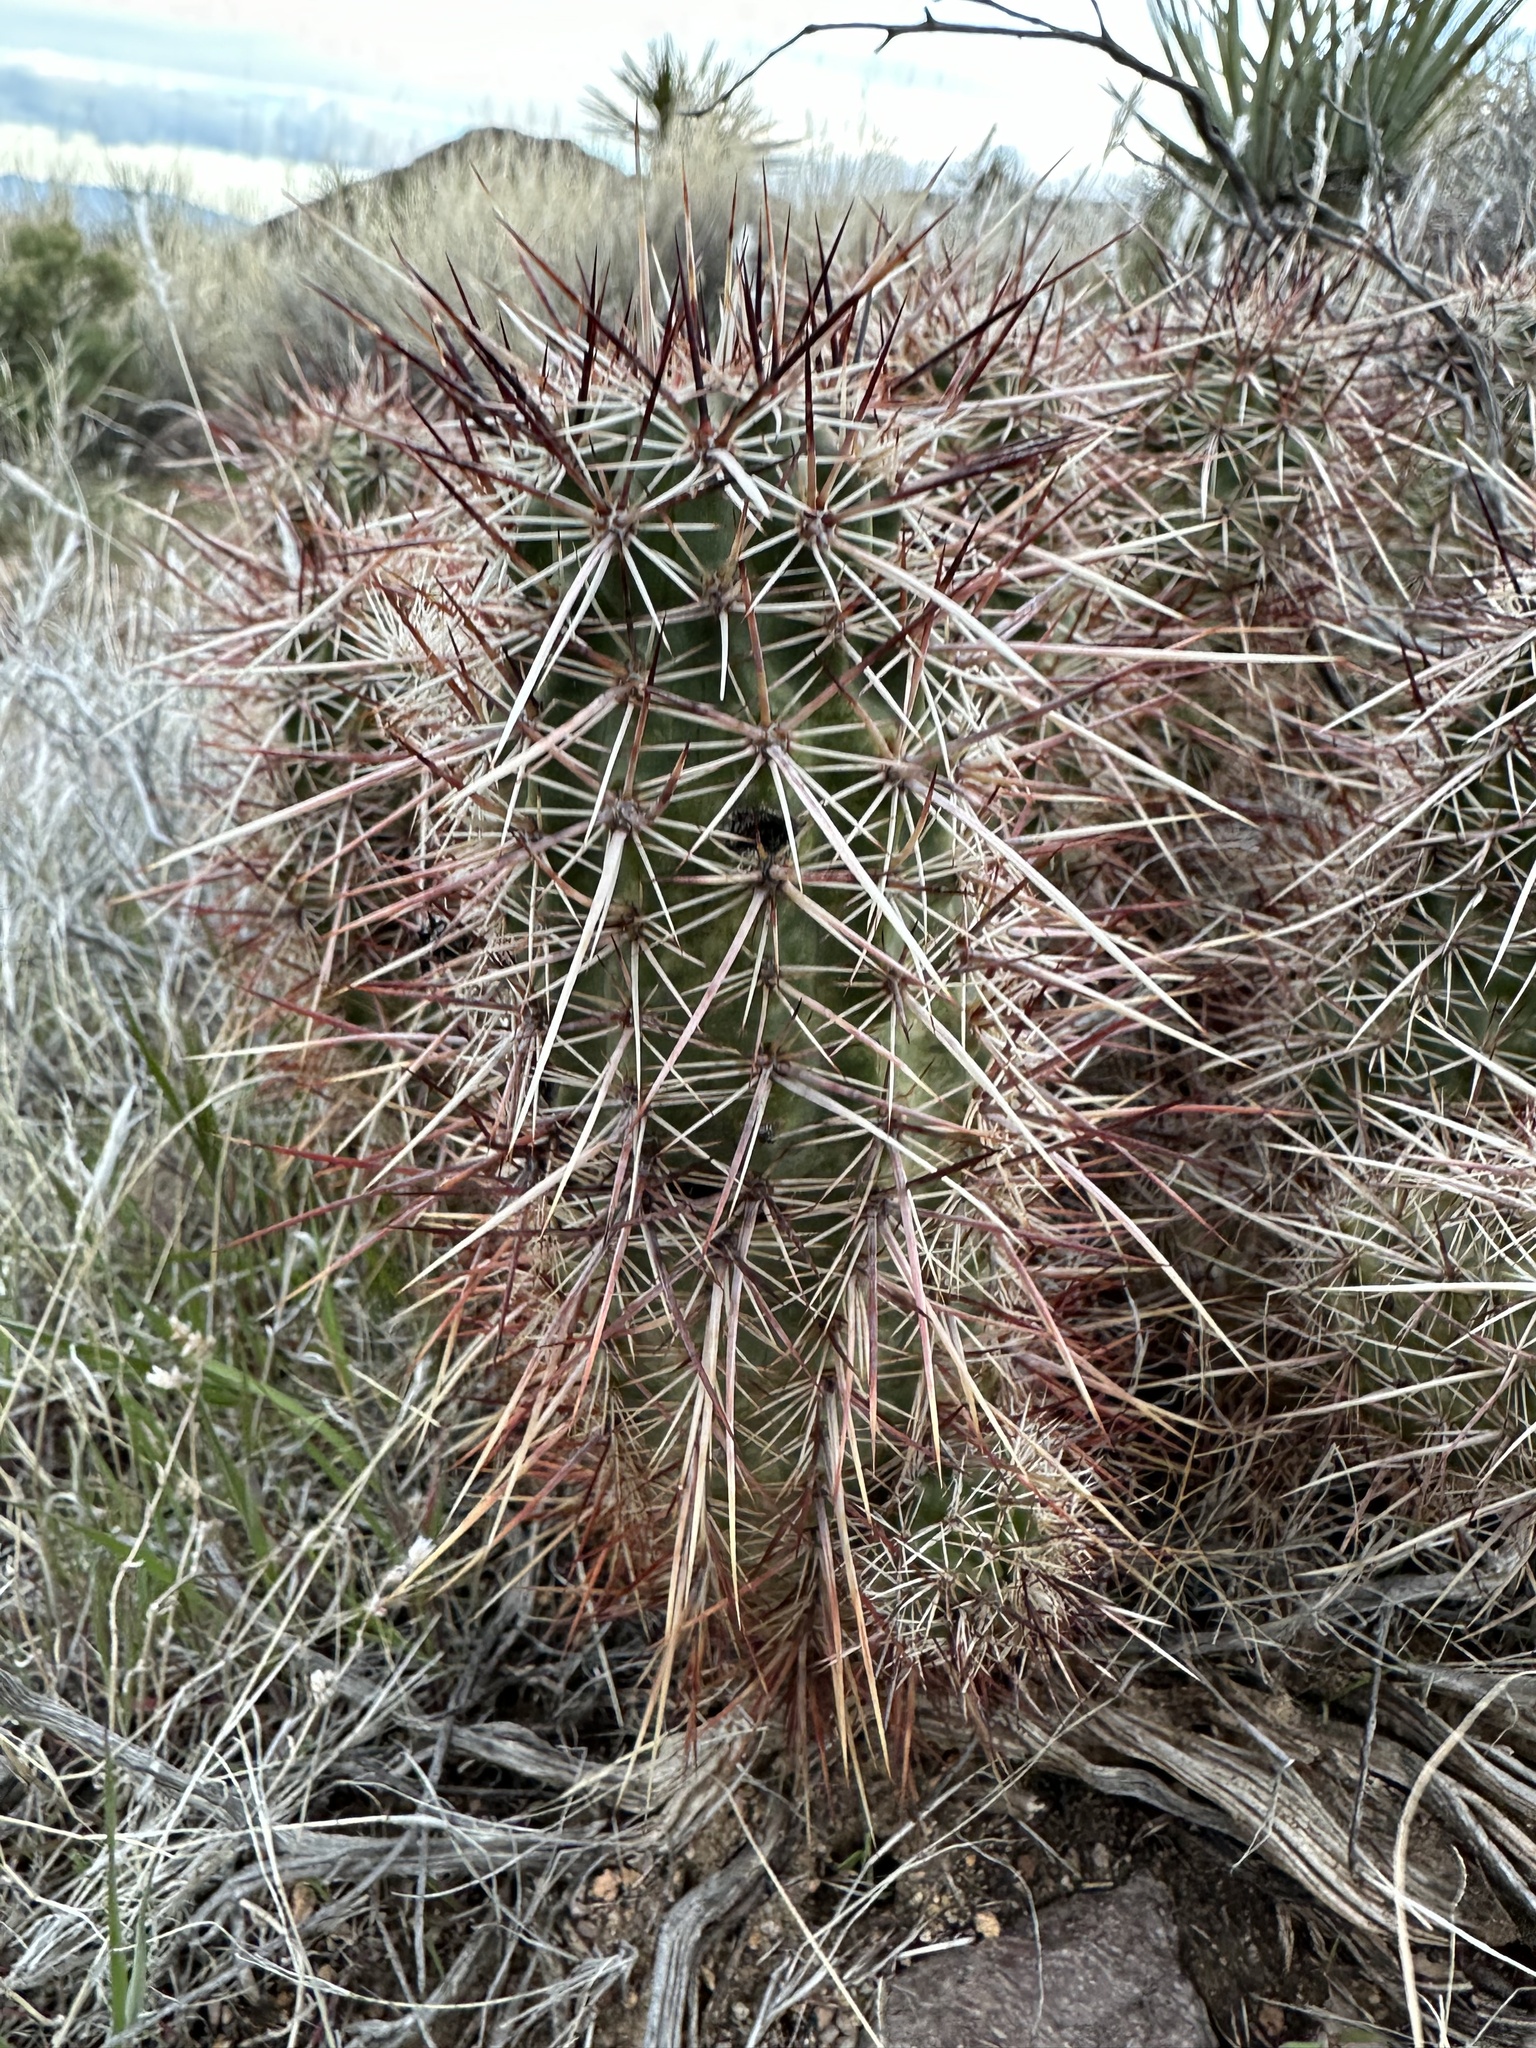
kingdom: Plantae
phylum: Tracheophyta
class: Magnoliopsida
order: Caryophyllales
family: Cactaceae
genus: Echinocereus
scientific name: Echinocereus engelmannii
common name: Engelmann's hedgehog cactus
